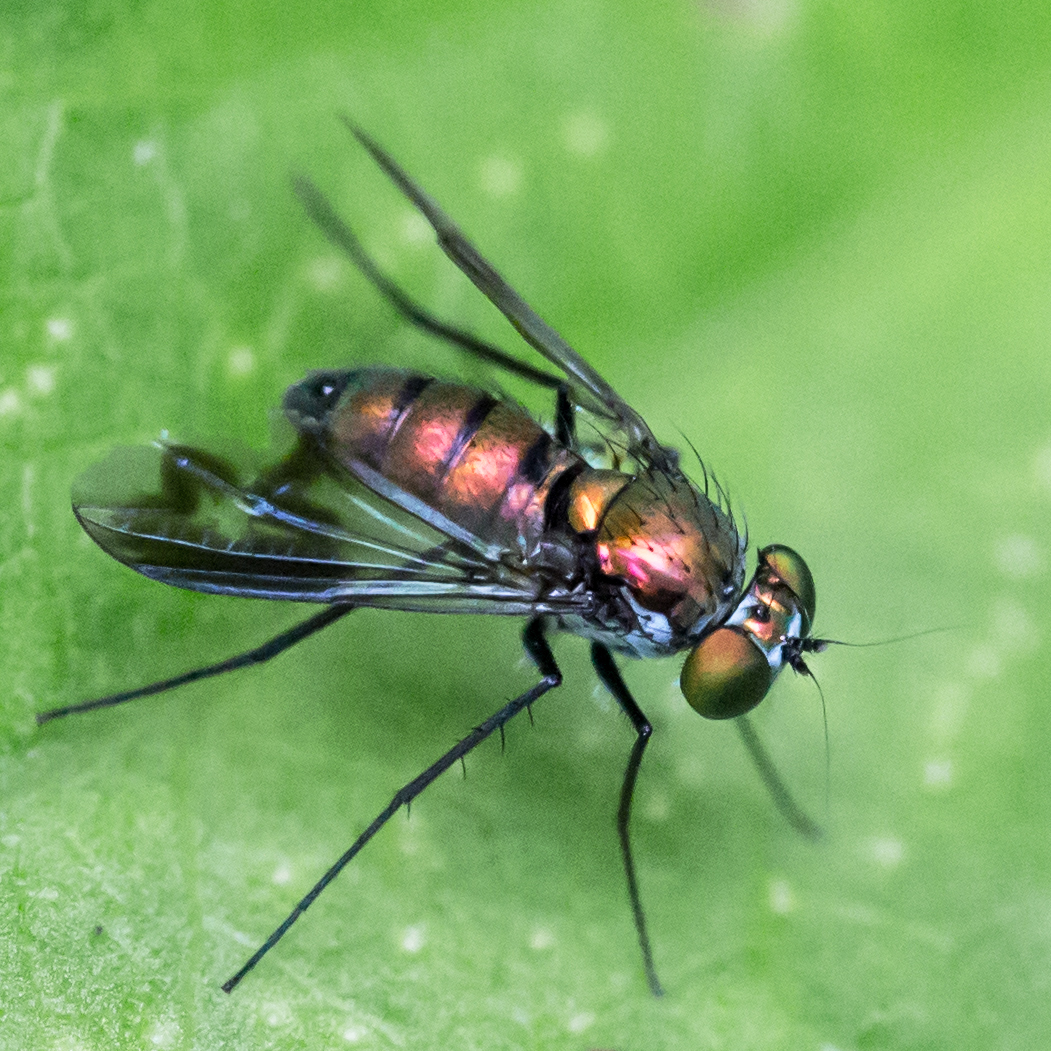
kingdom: Animalia
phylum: Arthropoda
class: Insecta
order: Diptera
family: Dolichopodidae
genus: Condylostylus
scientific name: Condylostylus patibulatus
